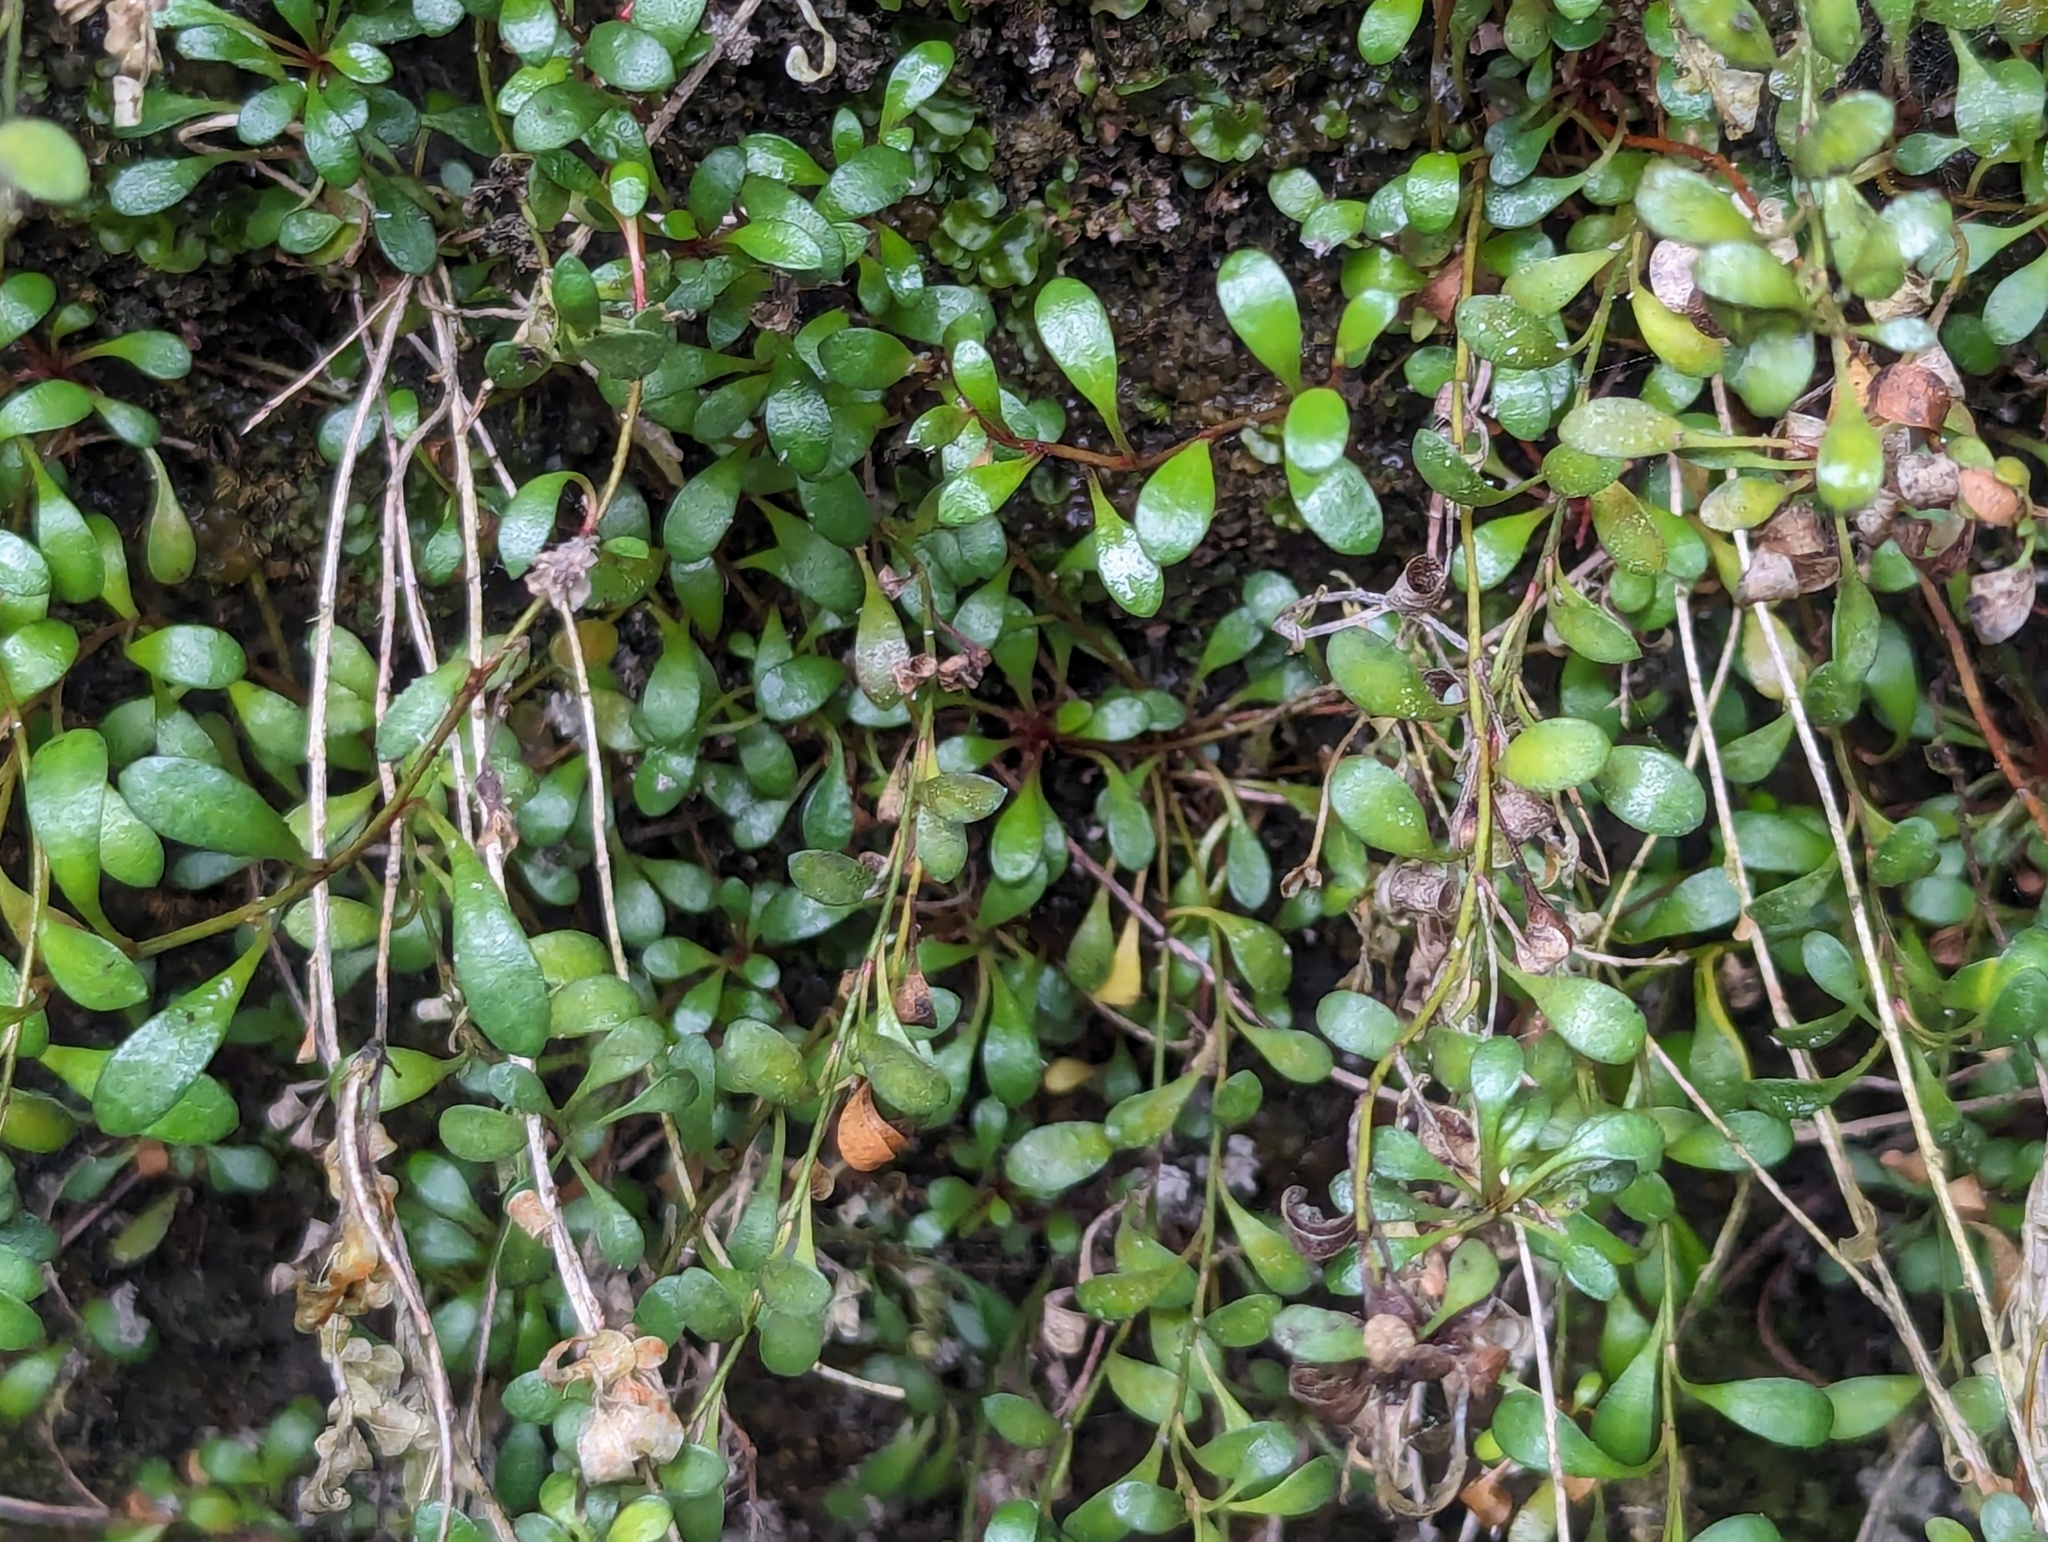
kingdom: Plantae
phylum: Tracheophyta
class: Magnoliopsida
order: Ericales
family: Primulaceae
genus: Samolus
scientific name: Samolus repens
